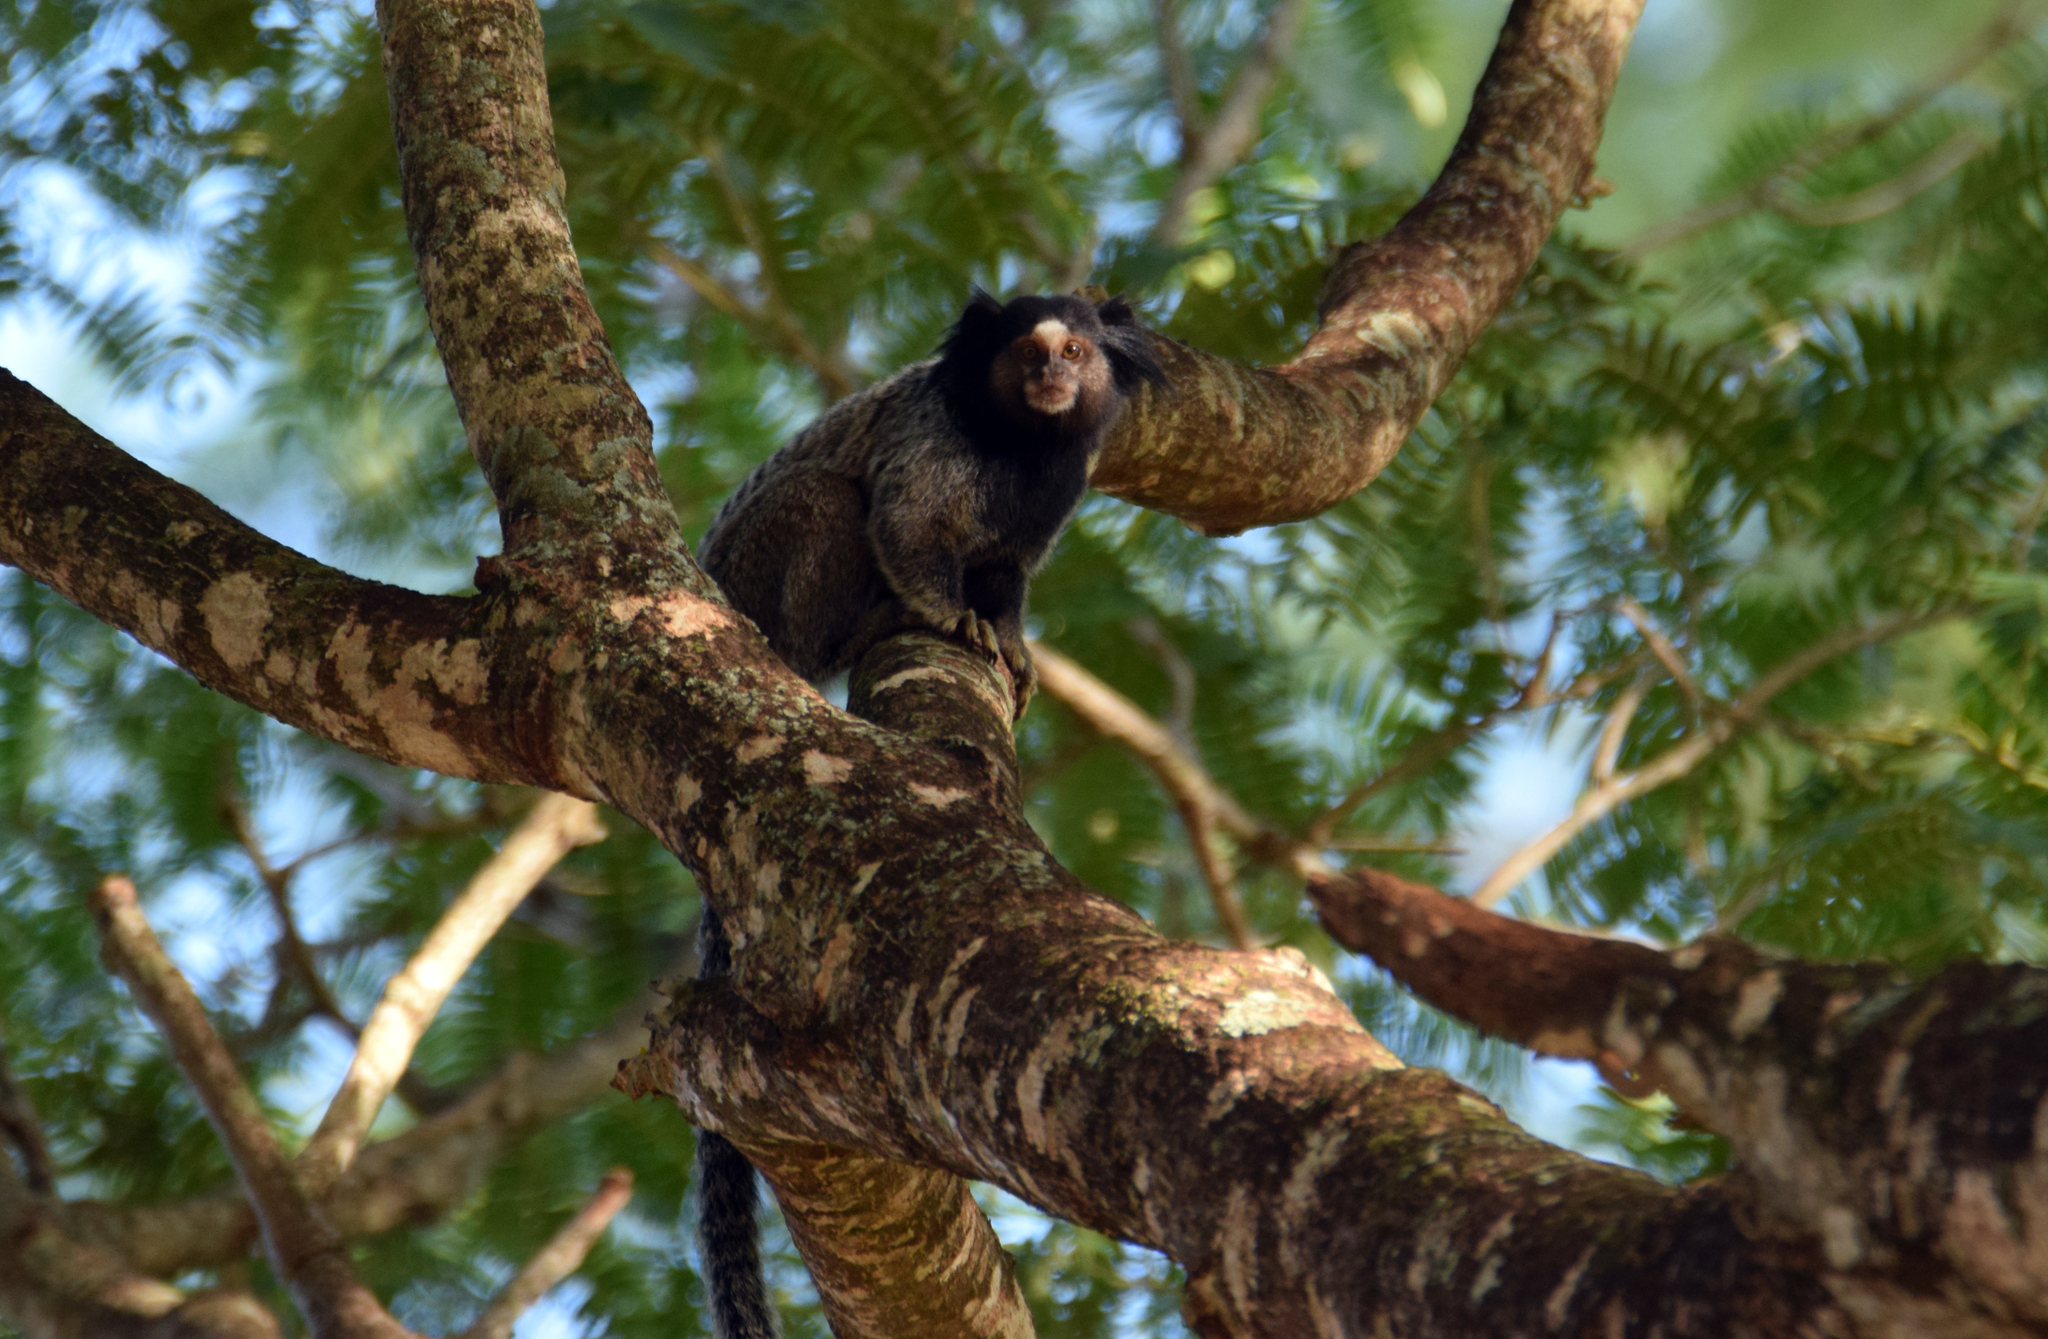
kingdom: Animalia
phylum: Chordata
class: Mammalia
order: Primates
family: Callitrichidae
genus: Callithrix
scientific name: Callithrix penicillata
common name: Black-tufted marmoset
